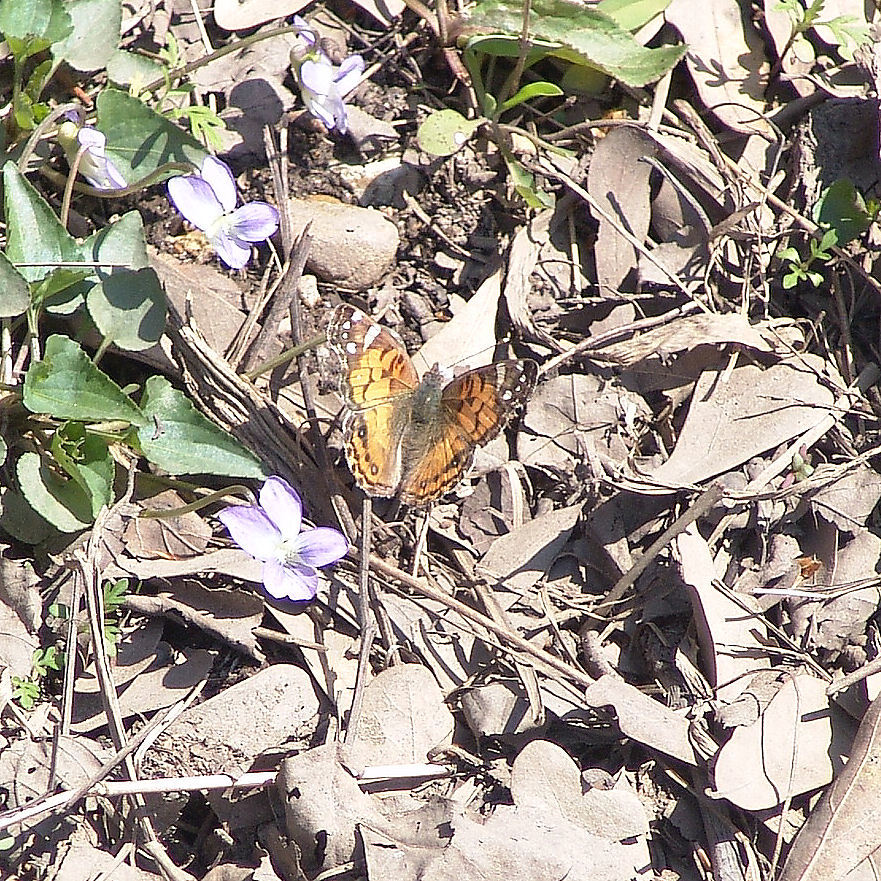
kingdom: Animalia
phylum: Arthropoda
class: Insecta
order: Lepidoptera
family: Nymphalidae
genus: Vanessa
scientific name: Vanessa virginiensis
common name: American lady
